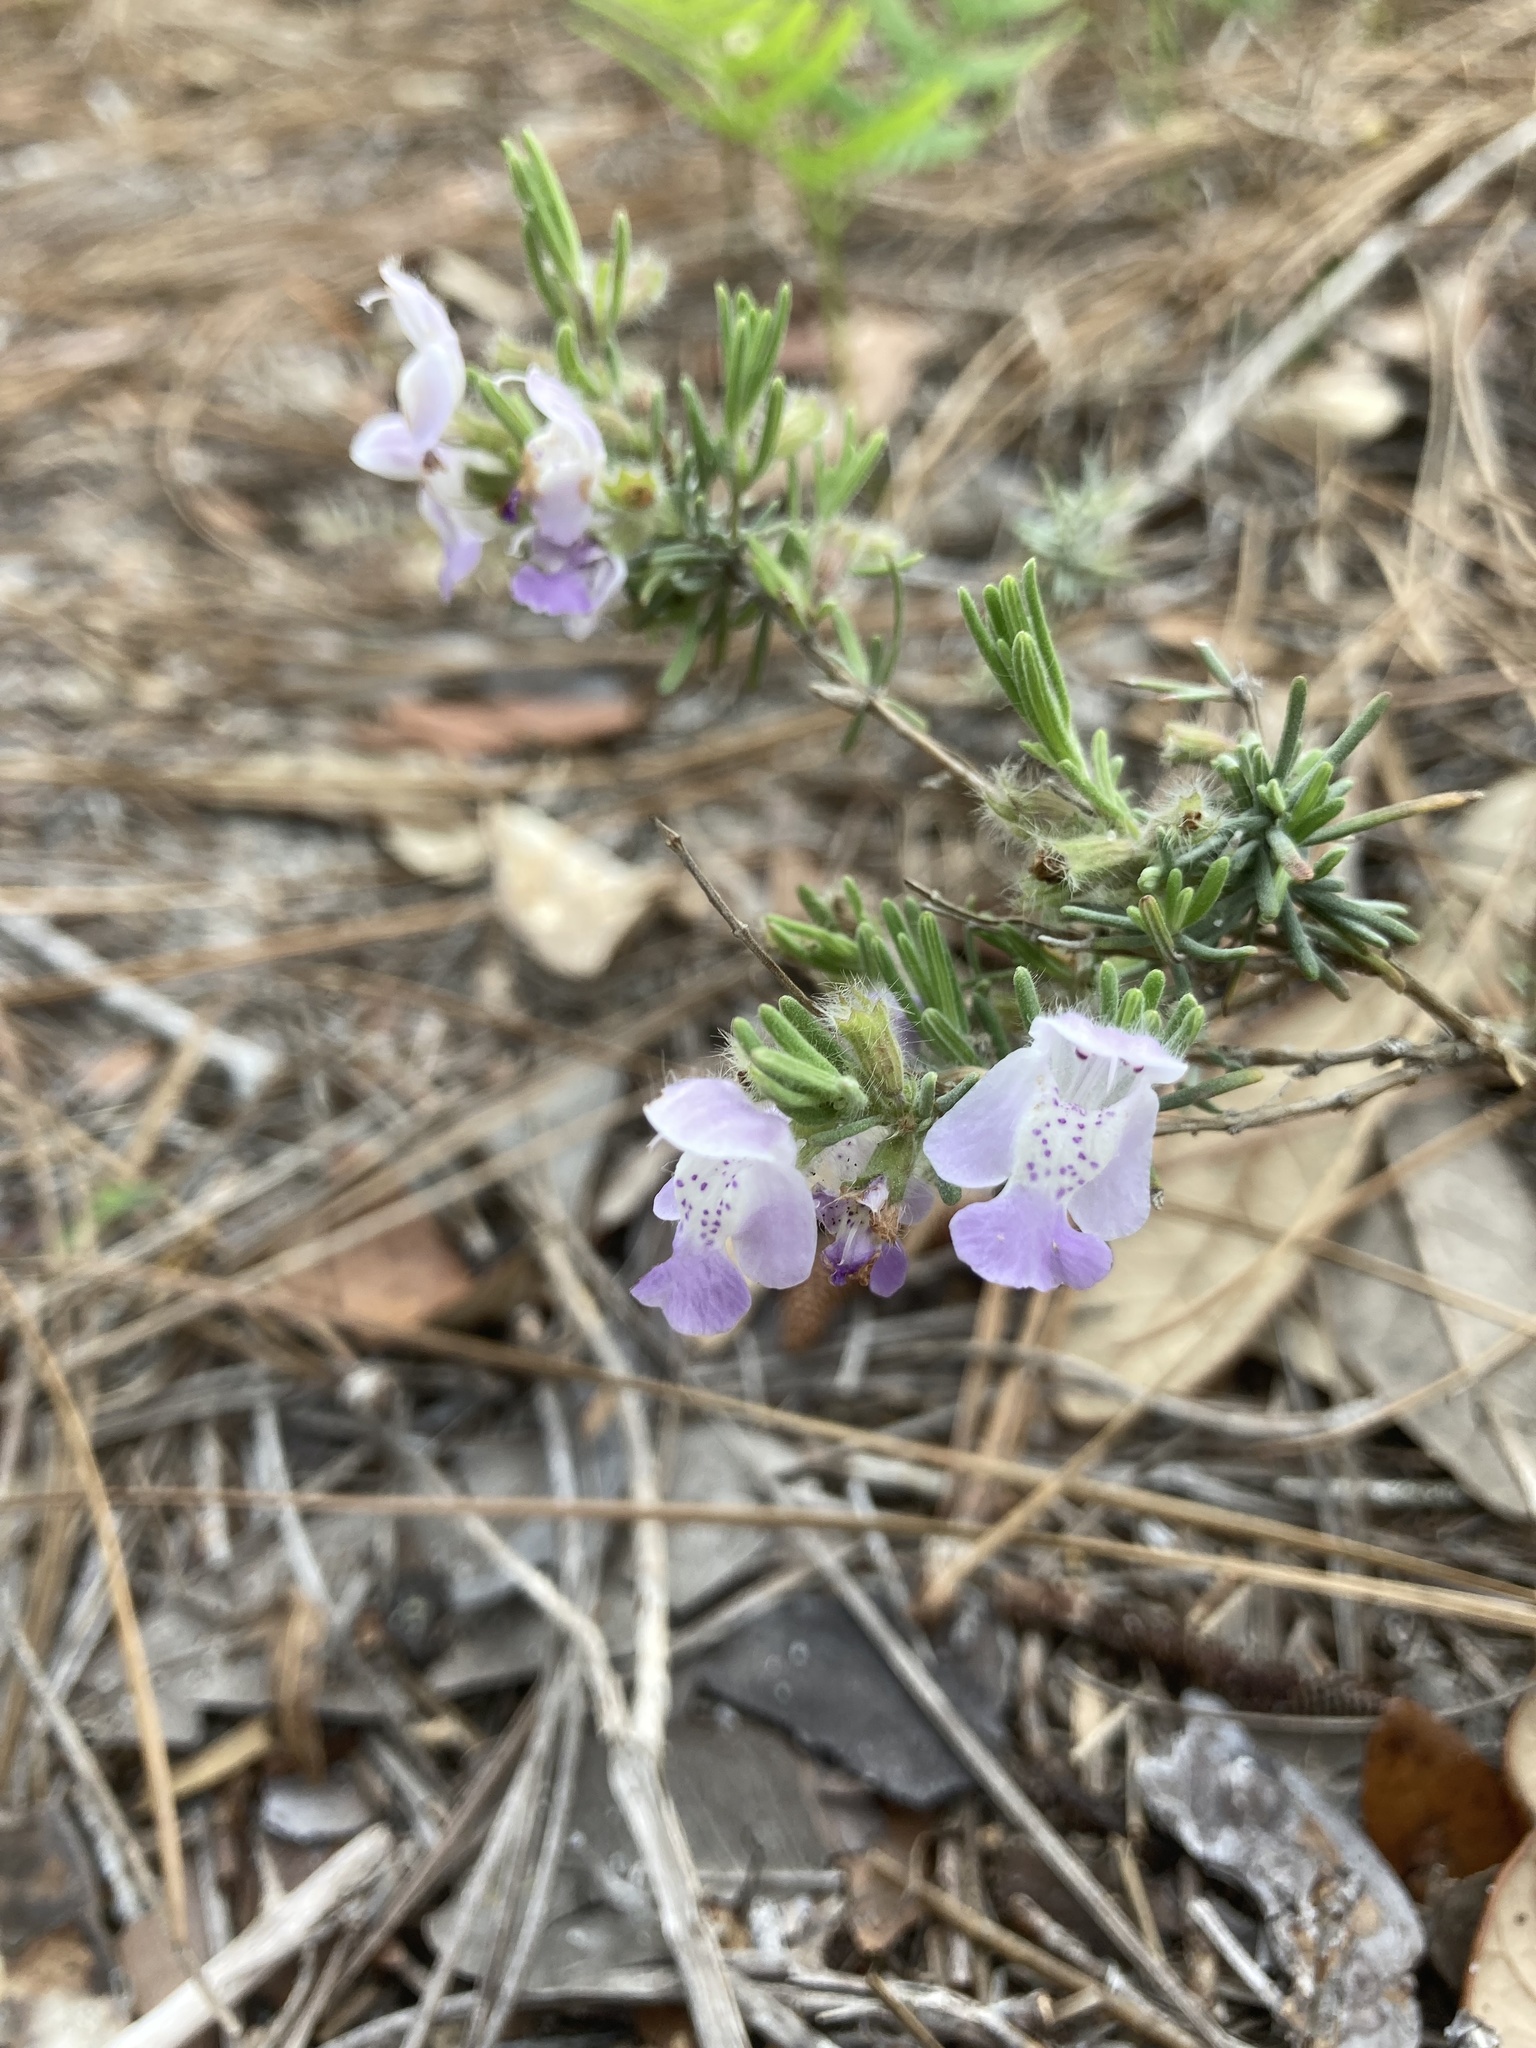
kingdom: Plantae
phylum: Tracheophyta
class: Magnoliopsida
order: Lamiales
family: Lamiaceae
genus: Conradina
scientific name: Conradina canescens
